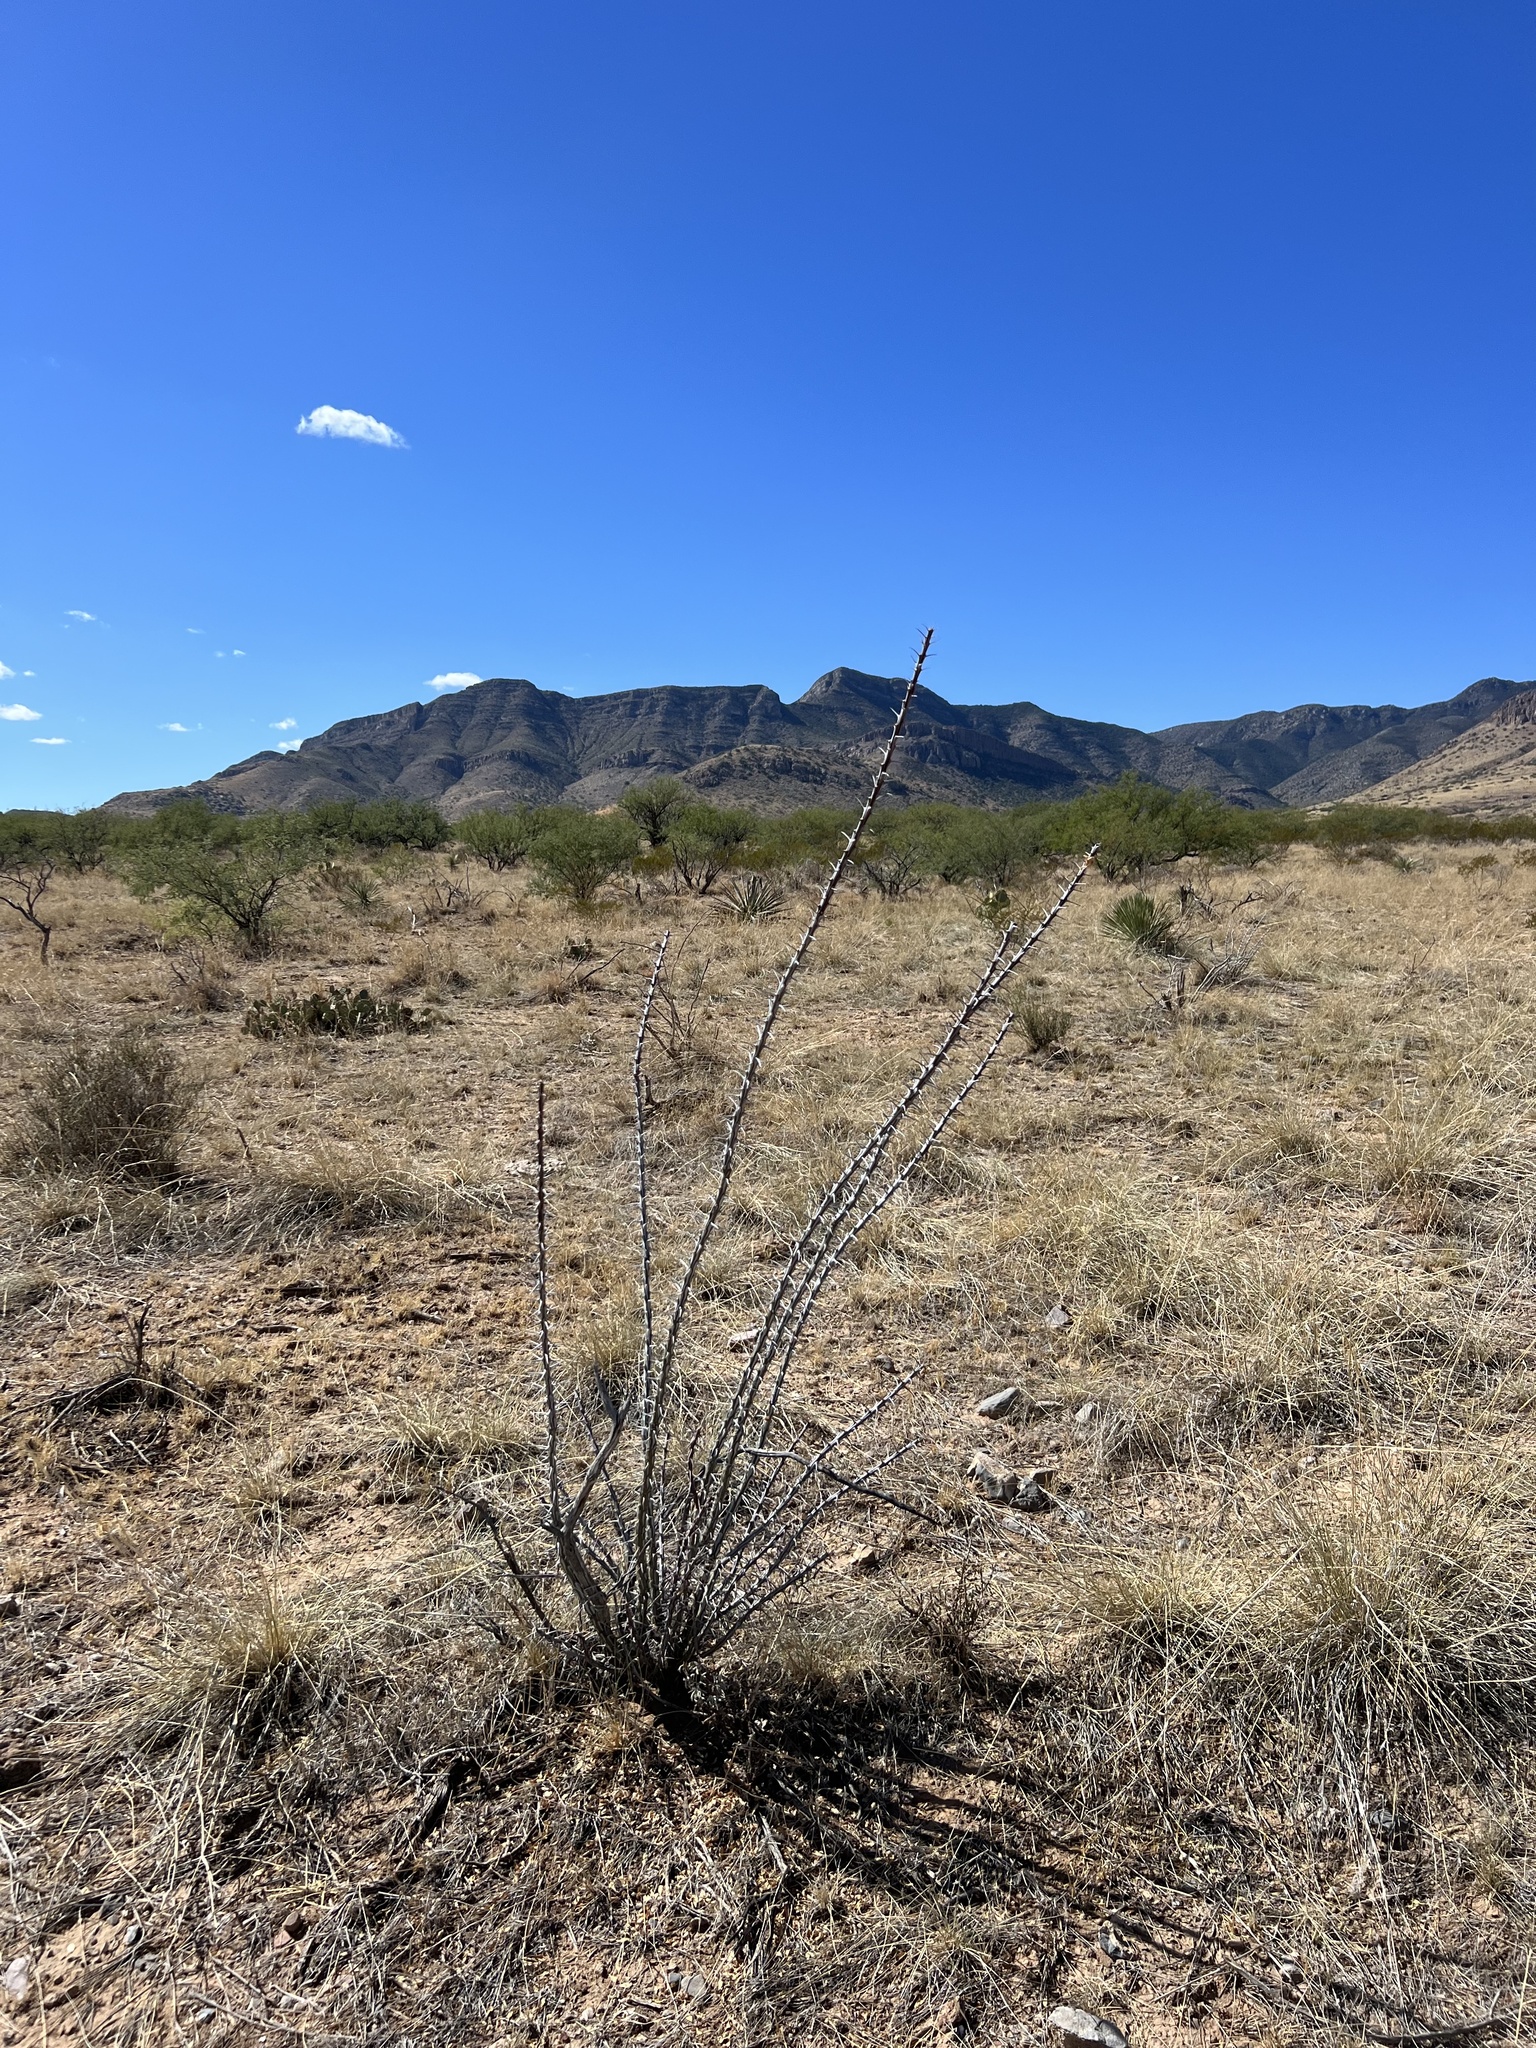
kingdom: Plantae
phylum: Tracheophyta
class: Magnoliopsida
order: Ericales
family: Fouquieriaceae
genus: Fouquieria
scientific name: Fouquieria splendens
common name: Vine-cactus
